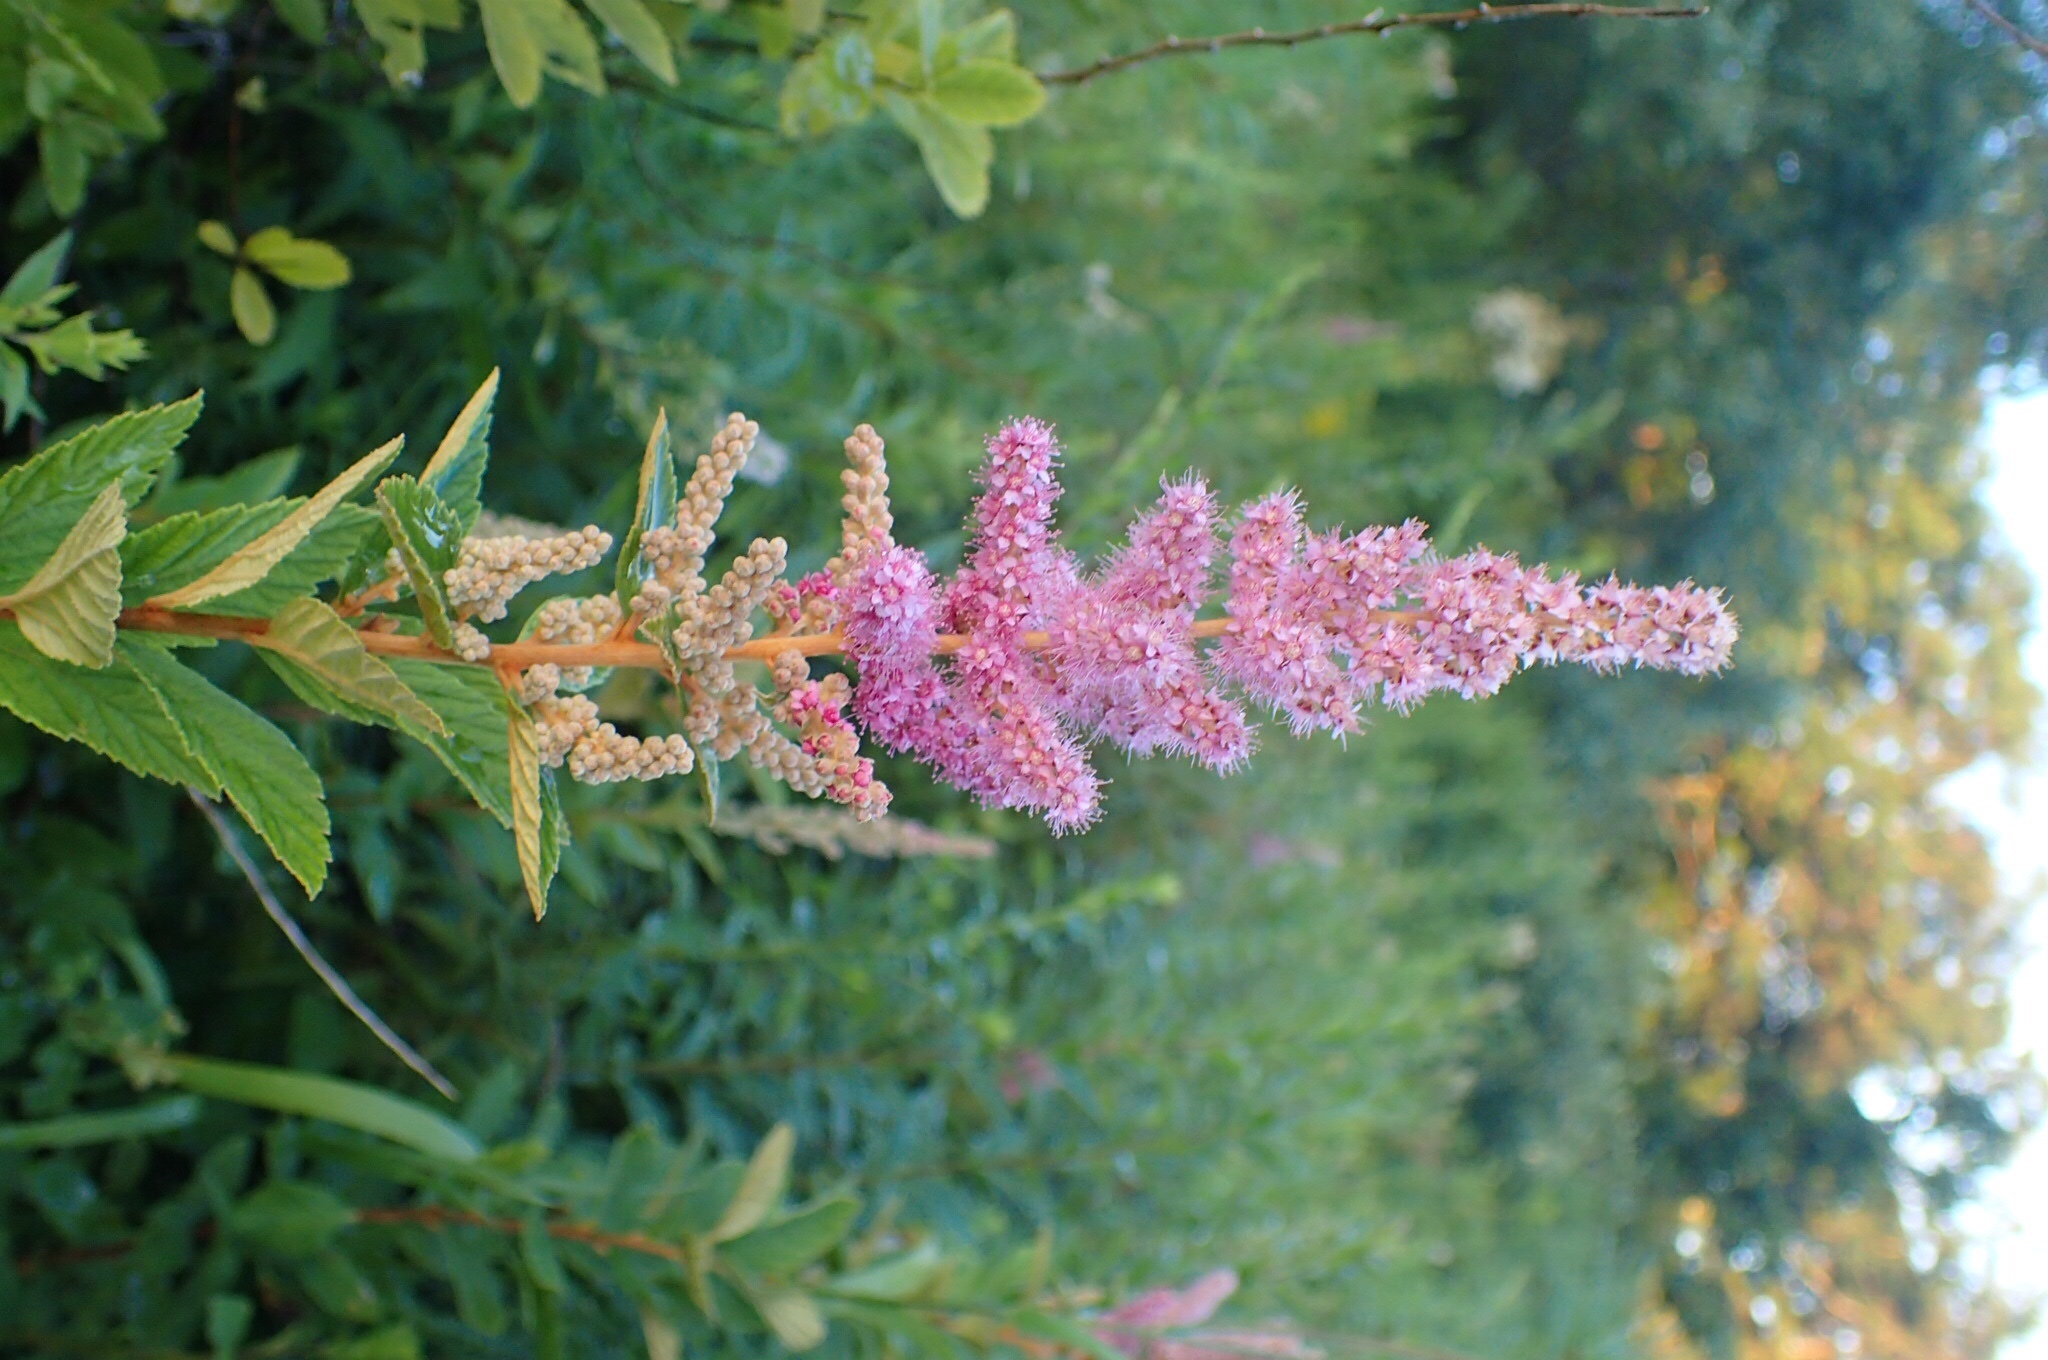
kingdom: Plantae
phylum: Tracheophyta
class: Magnoliopsida
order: Rosales
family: Rosaceae
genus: Spiraea
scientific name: Spiraea tomentosa
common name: Hardhack
